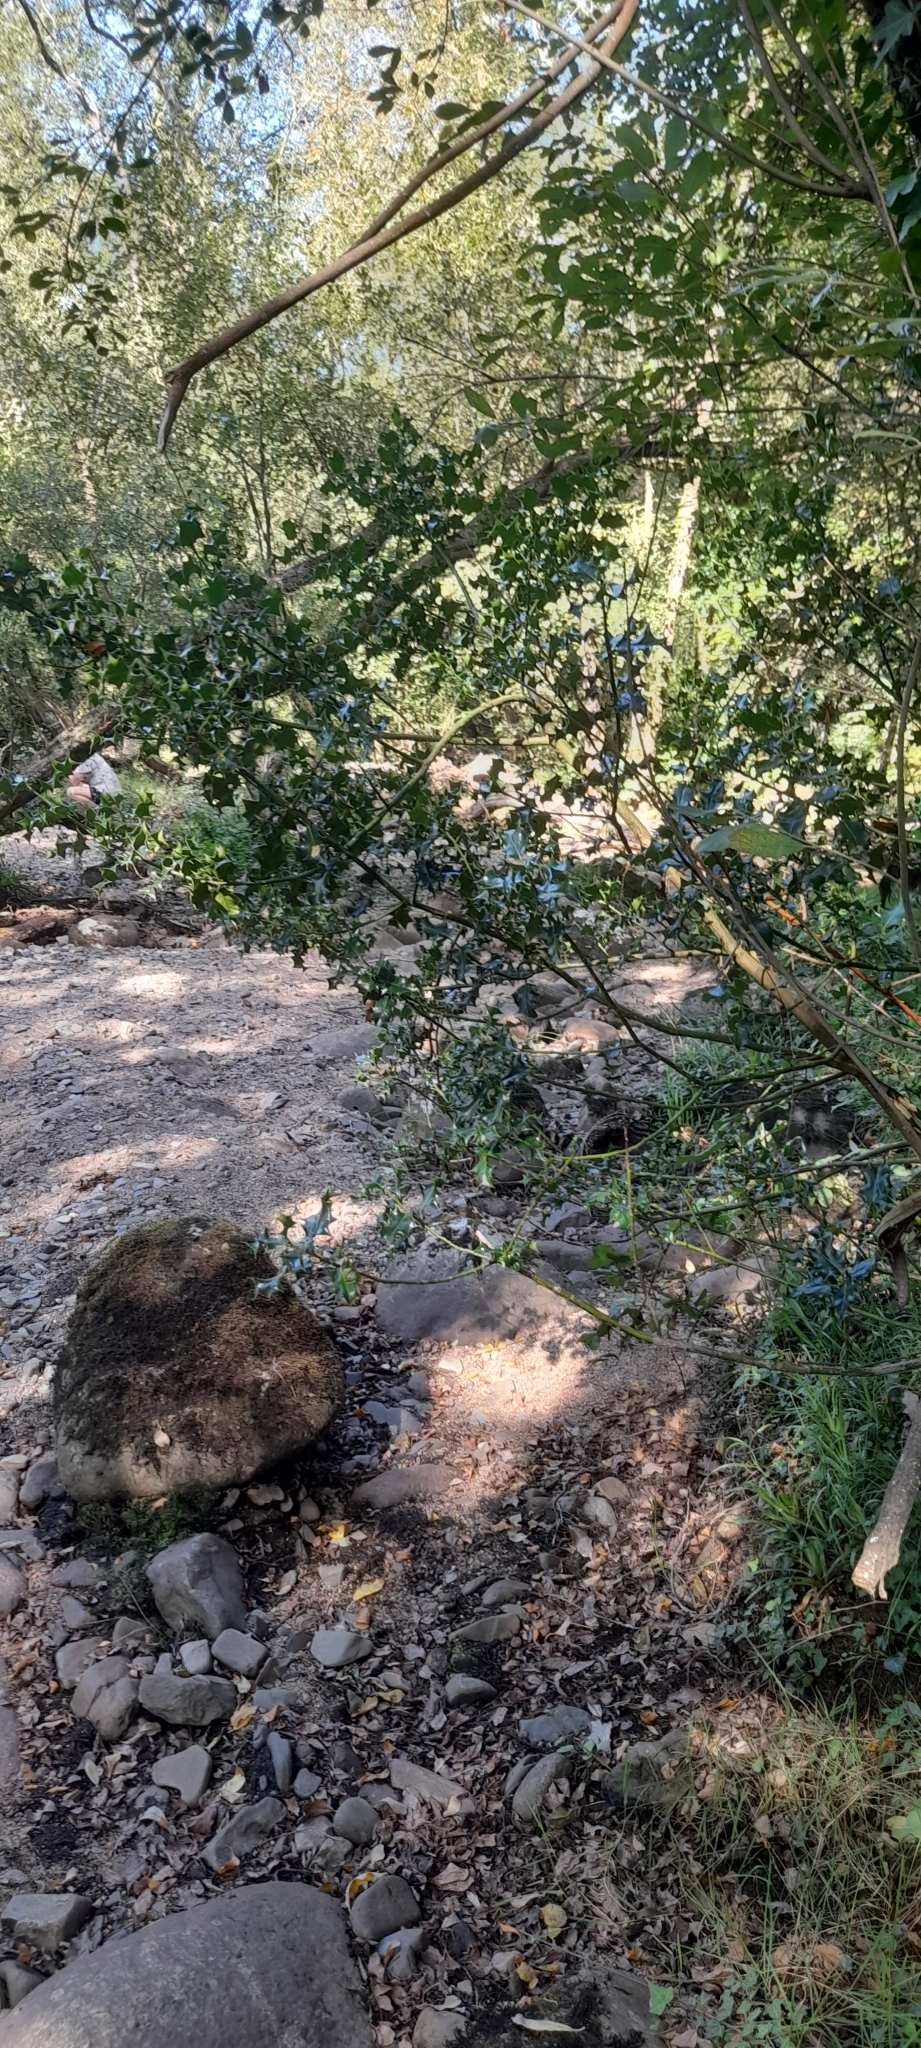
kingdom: Plantae
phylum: Tracheophyta
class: Magnoliopsida
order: Aquifoliales
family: Aquifoliaceae
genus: Ilex
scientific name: Ilex aquifolium
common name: English holly
